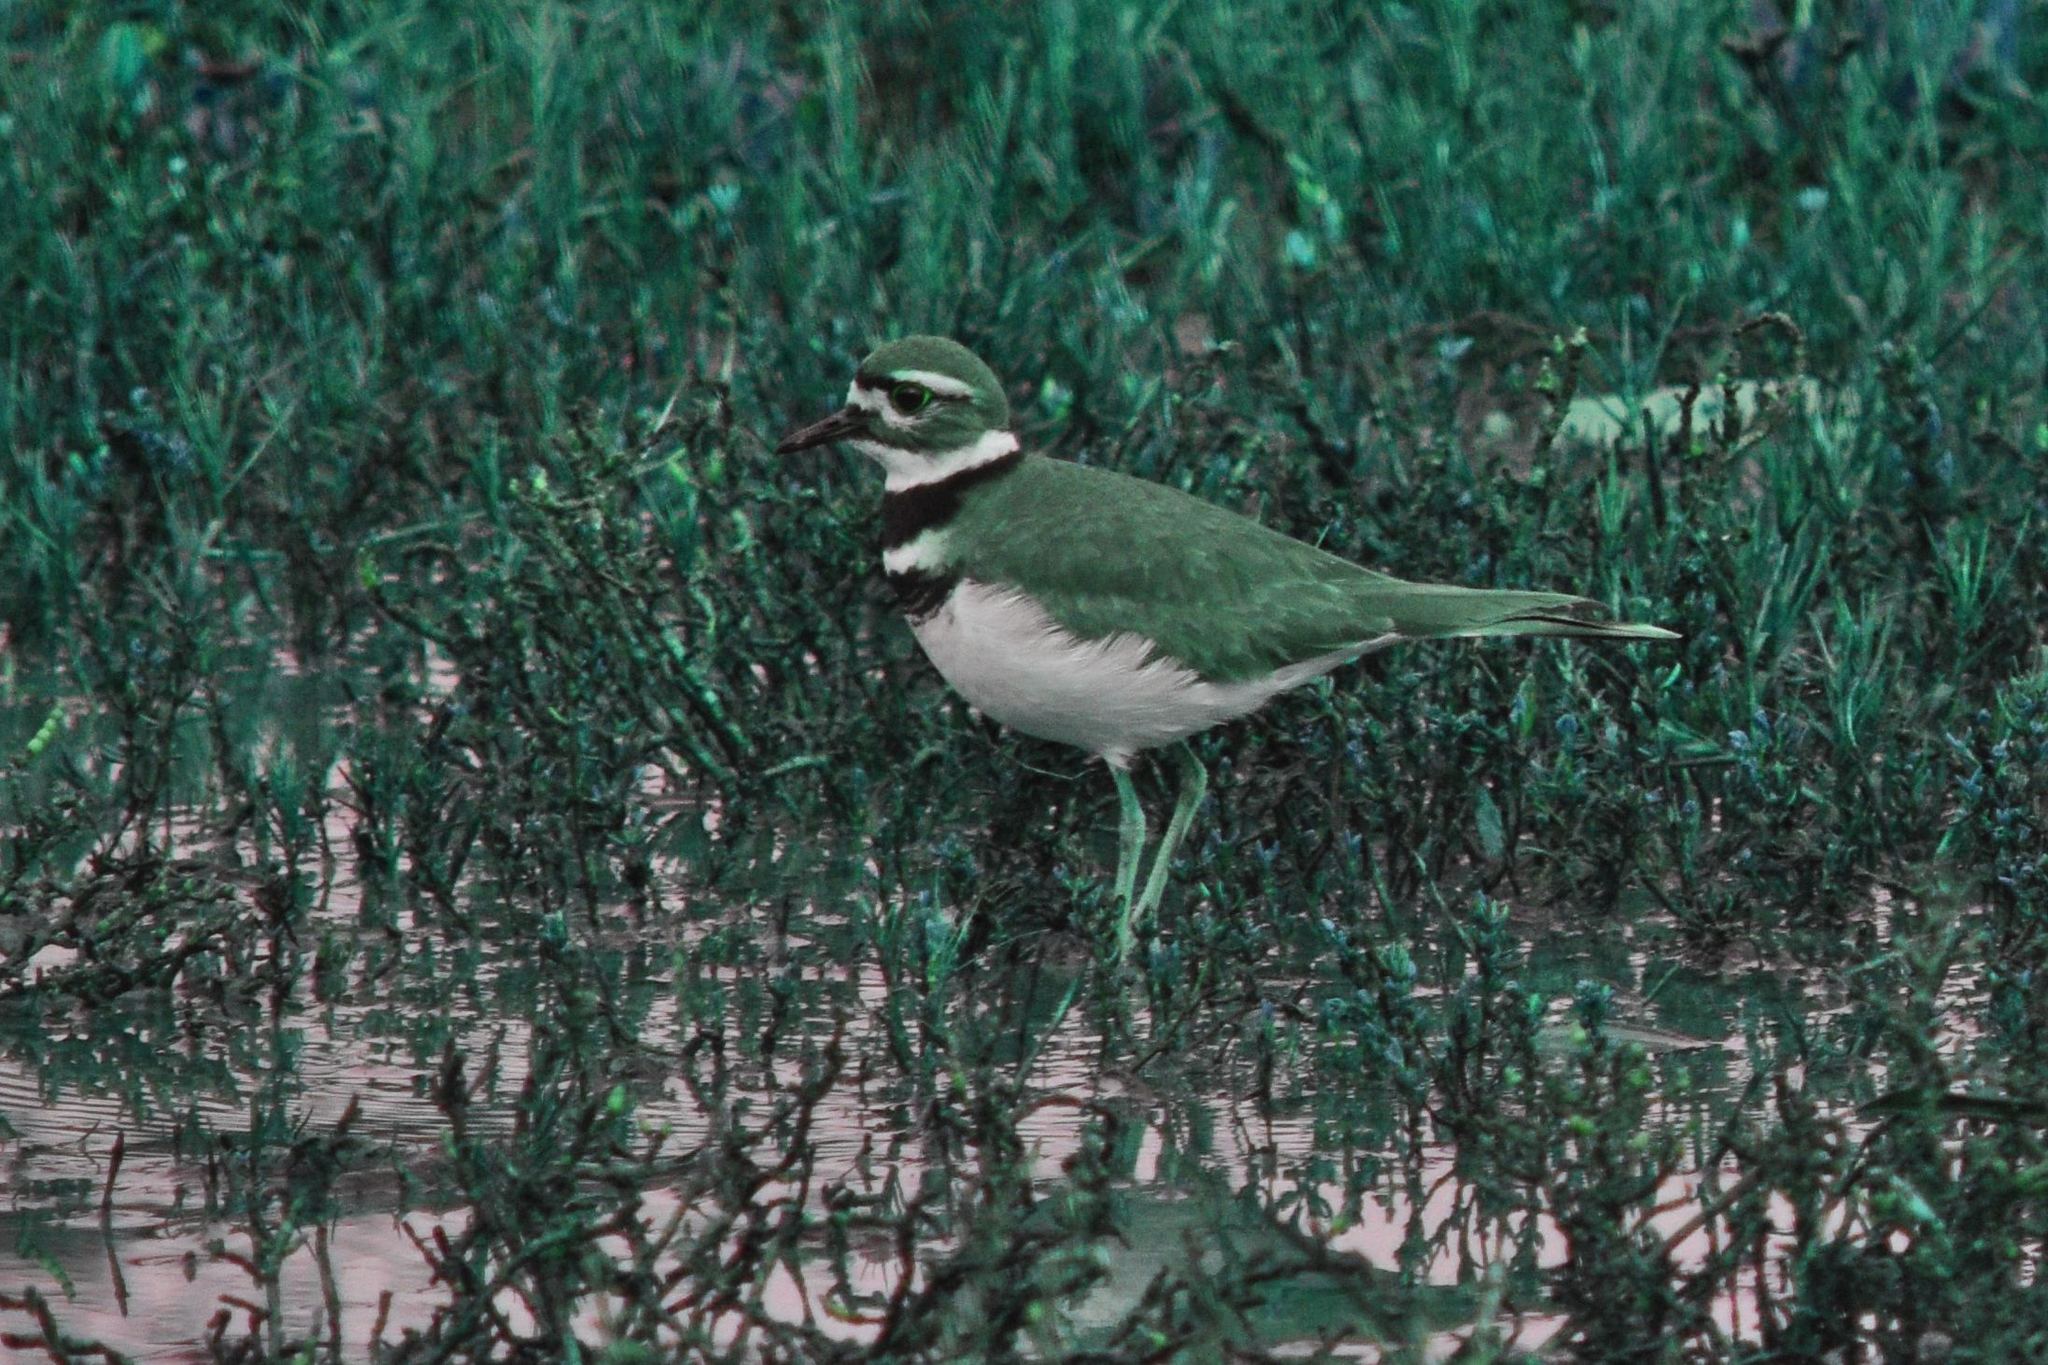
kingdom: Animalia
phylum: Chordata
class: Aves
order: Charadriiformes
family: Charadriidae
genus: Charadrius
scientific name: Charadrius vociferus
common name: Killdeer
